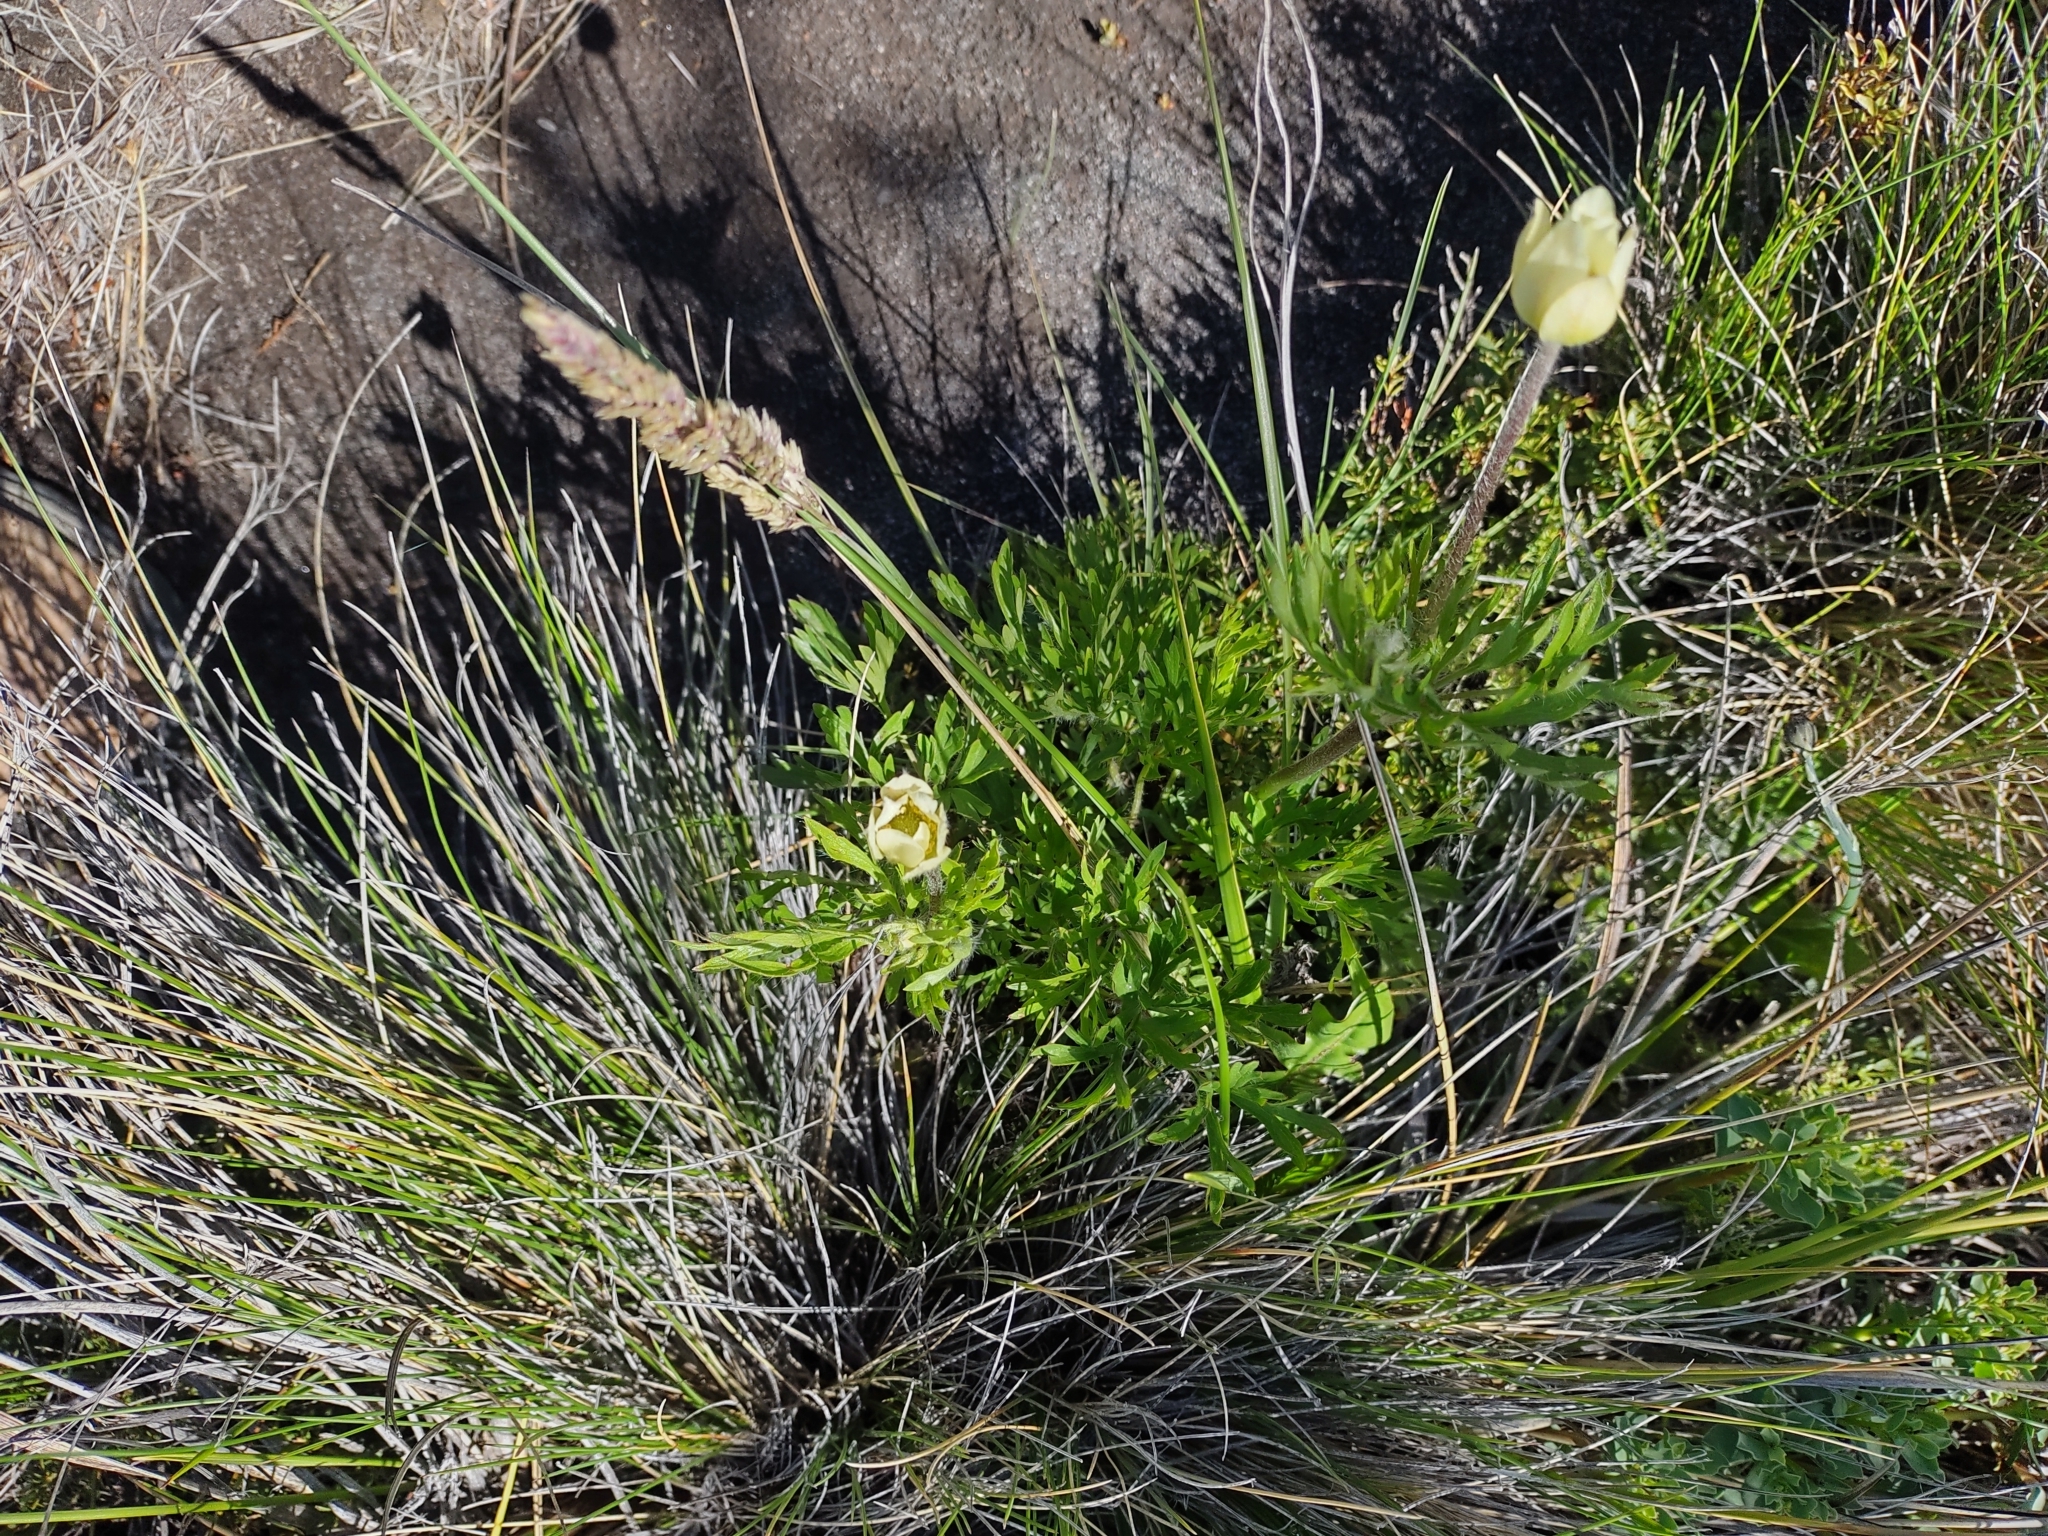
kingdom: Plantae
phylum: Tracheophyta
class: Magnoliopsida
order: Ranunculales
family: Ranunculaceae
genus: Anemone
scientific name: Anemone multifida
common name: Bird's-foot anemone
